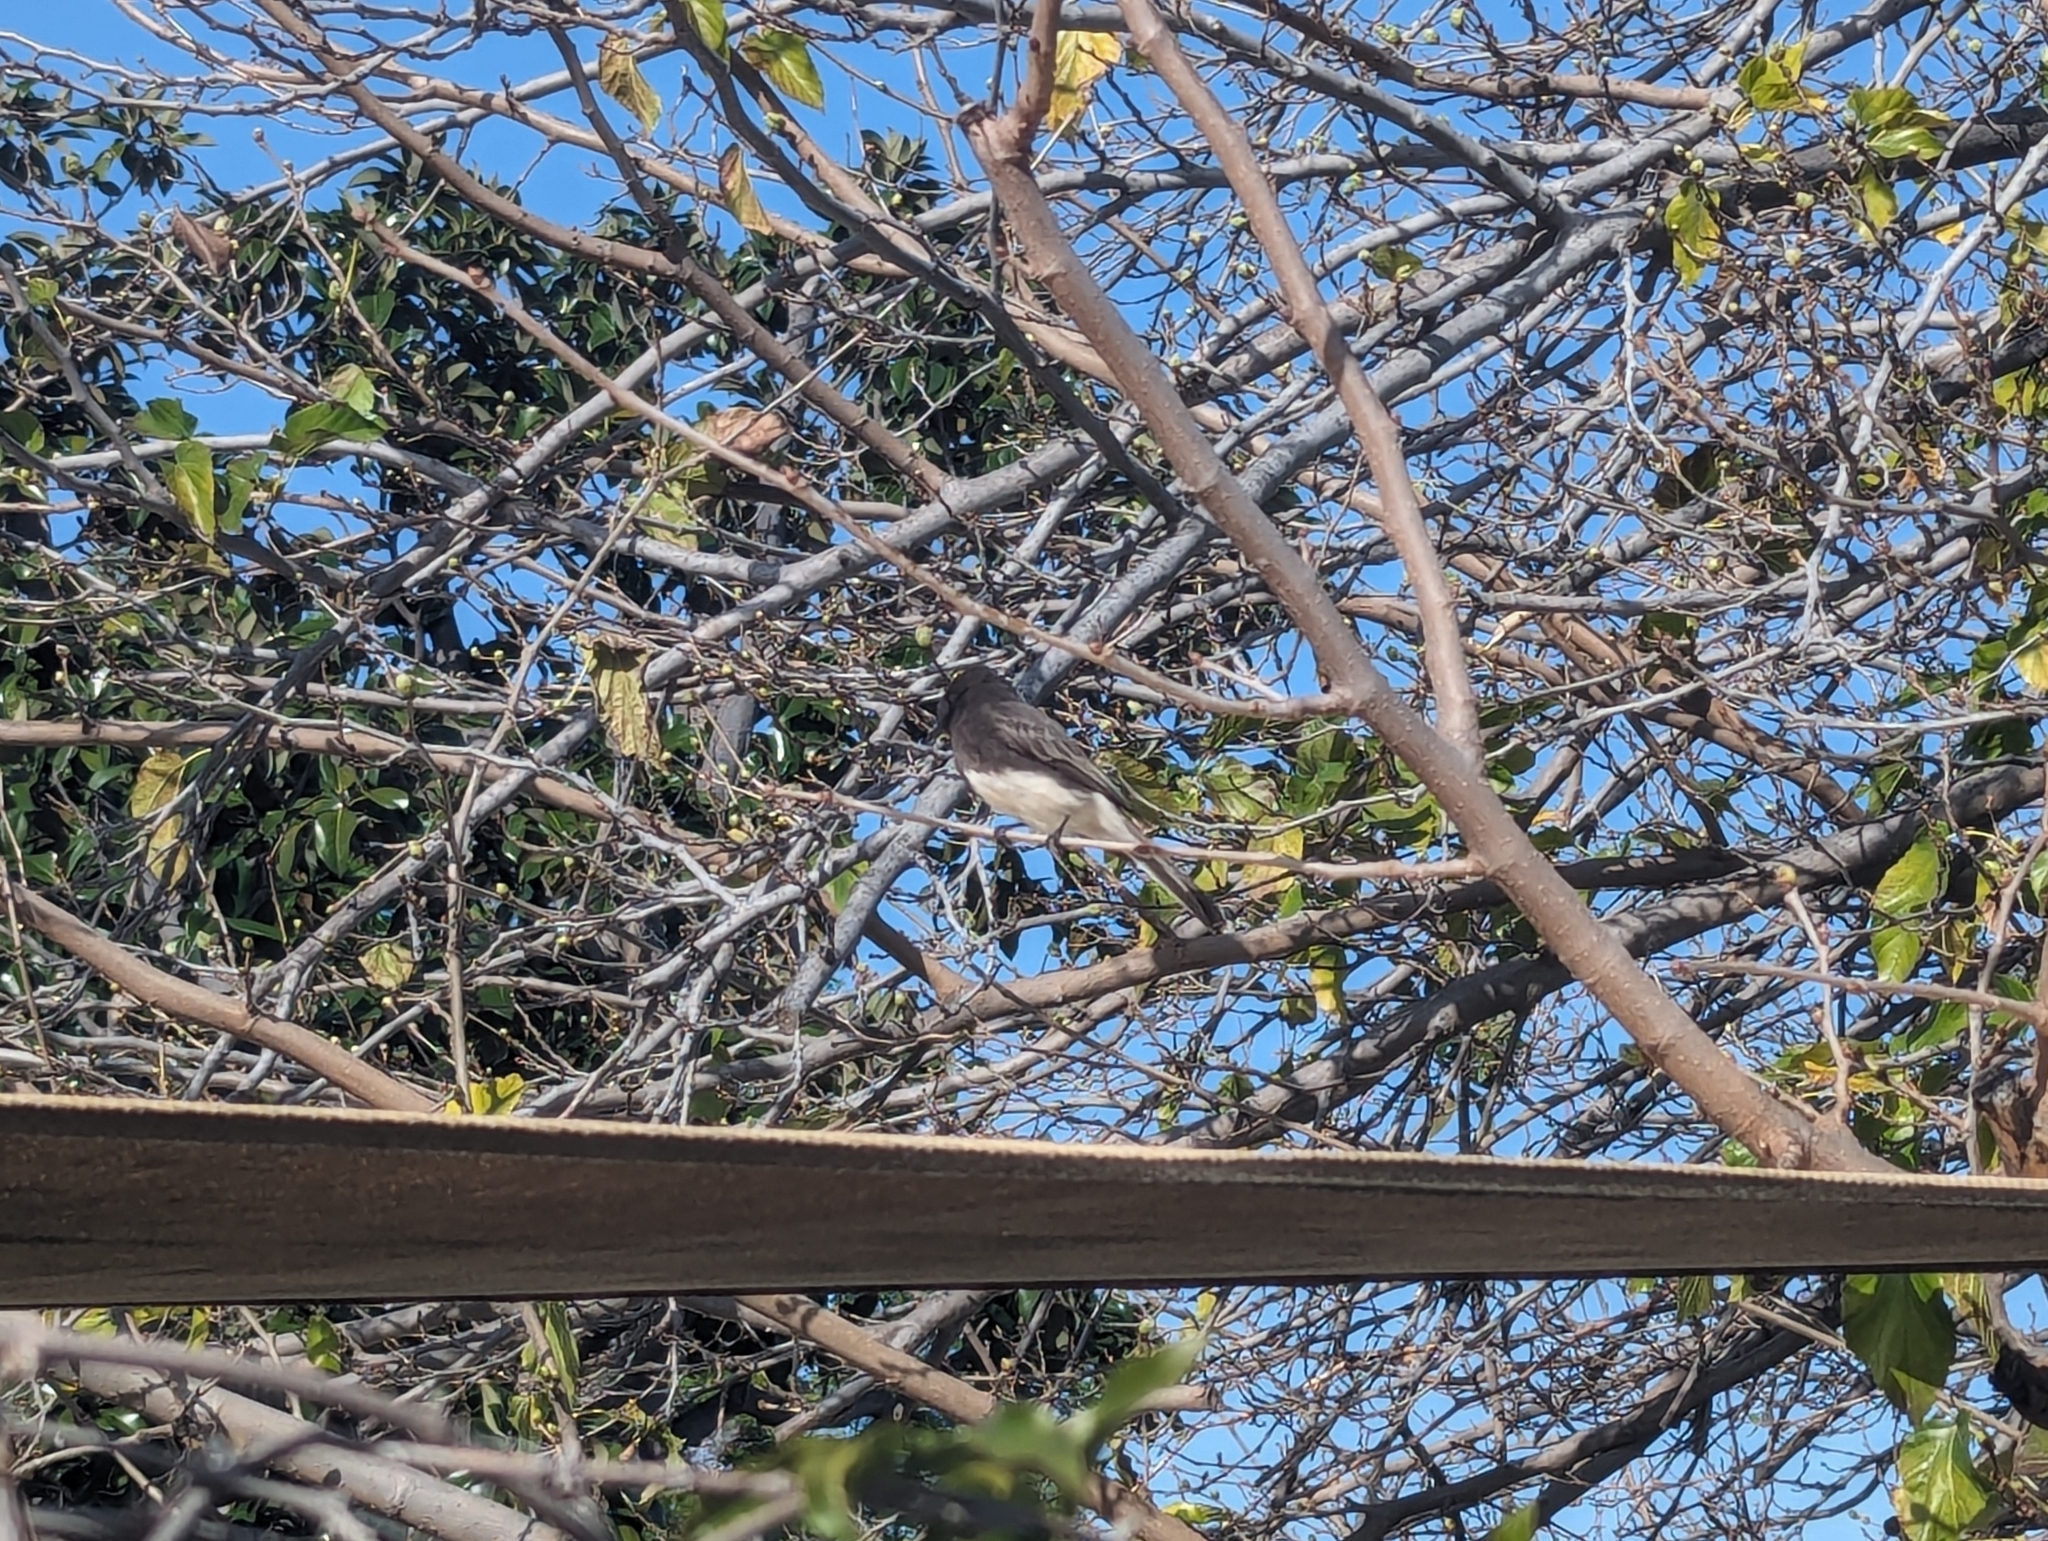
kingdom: Animalia
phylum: Chordata
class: Aves
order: Passeriformes
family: Tyrannidae
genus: Sayornis
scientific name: Sayornis nigricans
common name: Black phoebe
